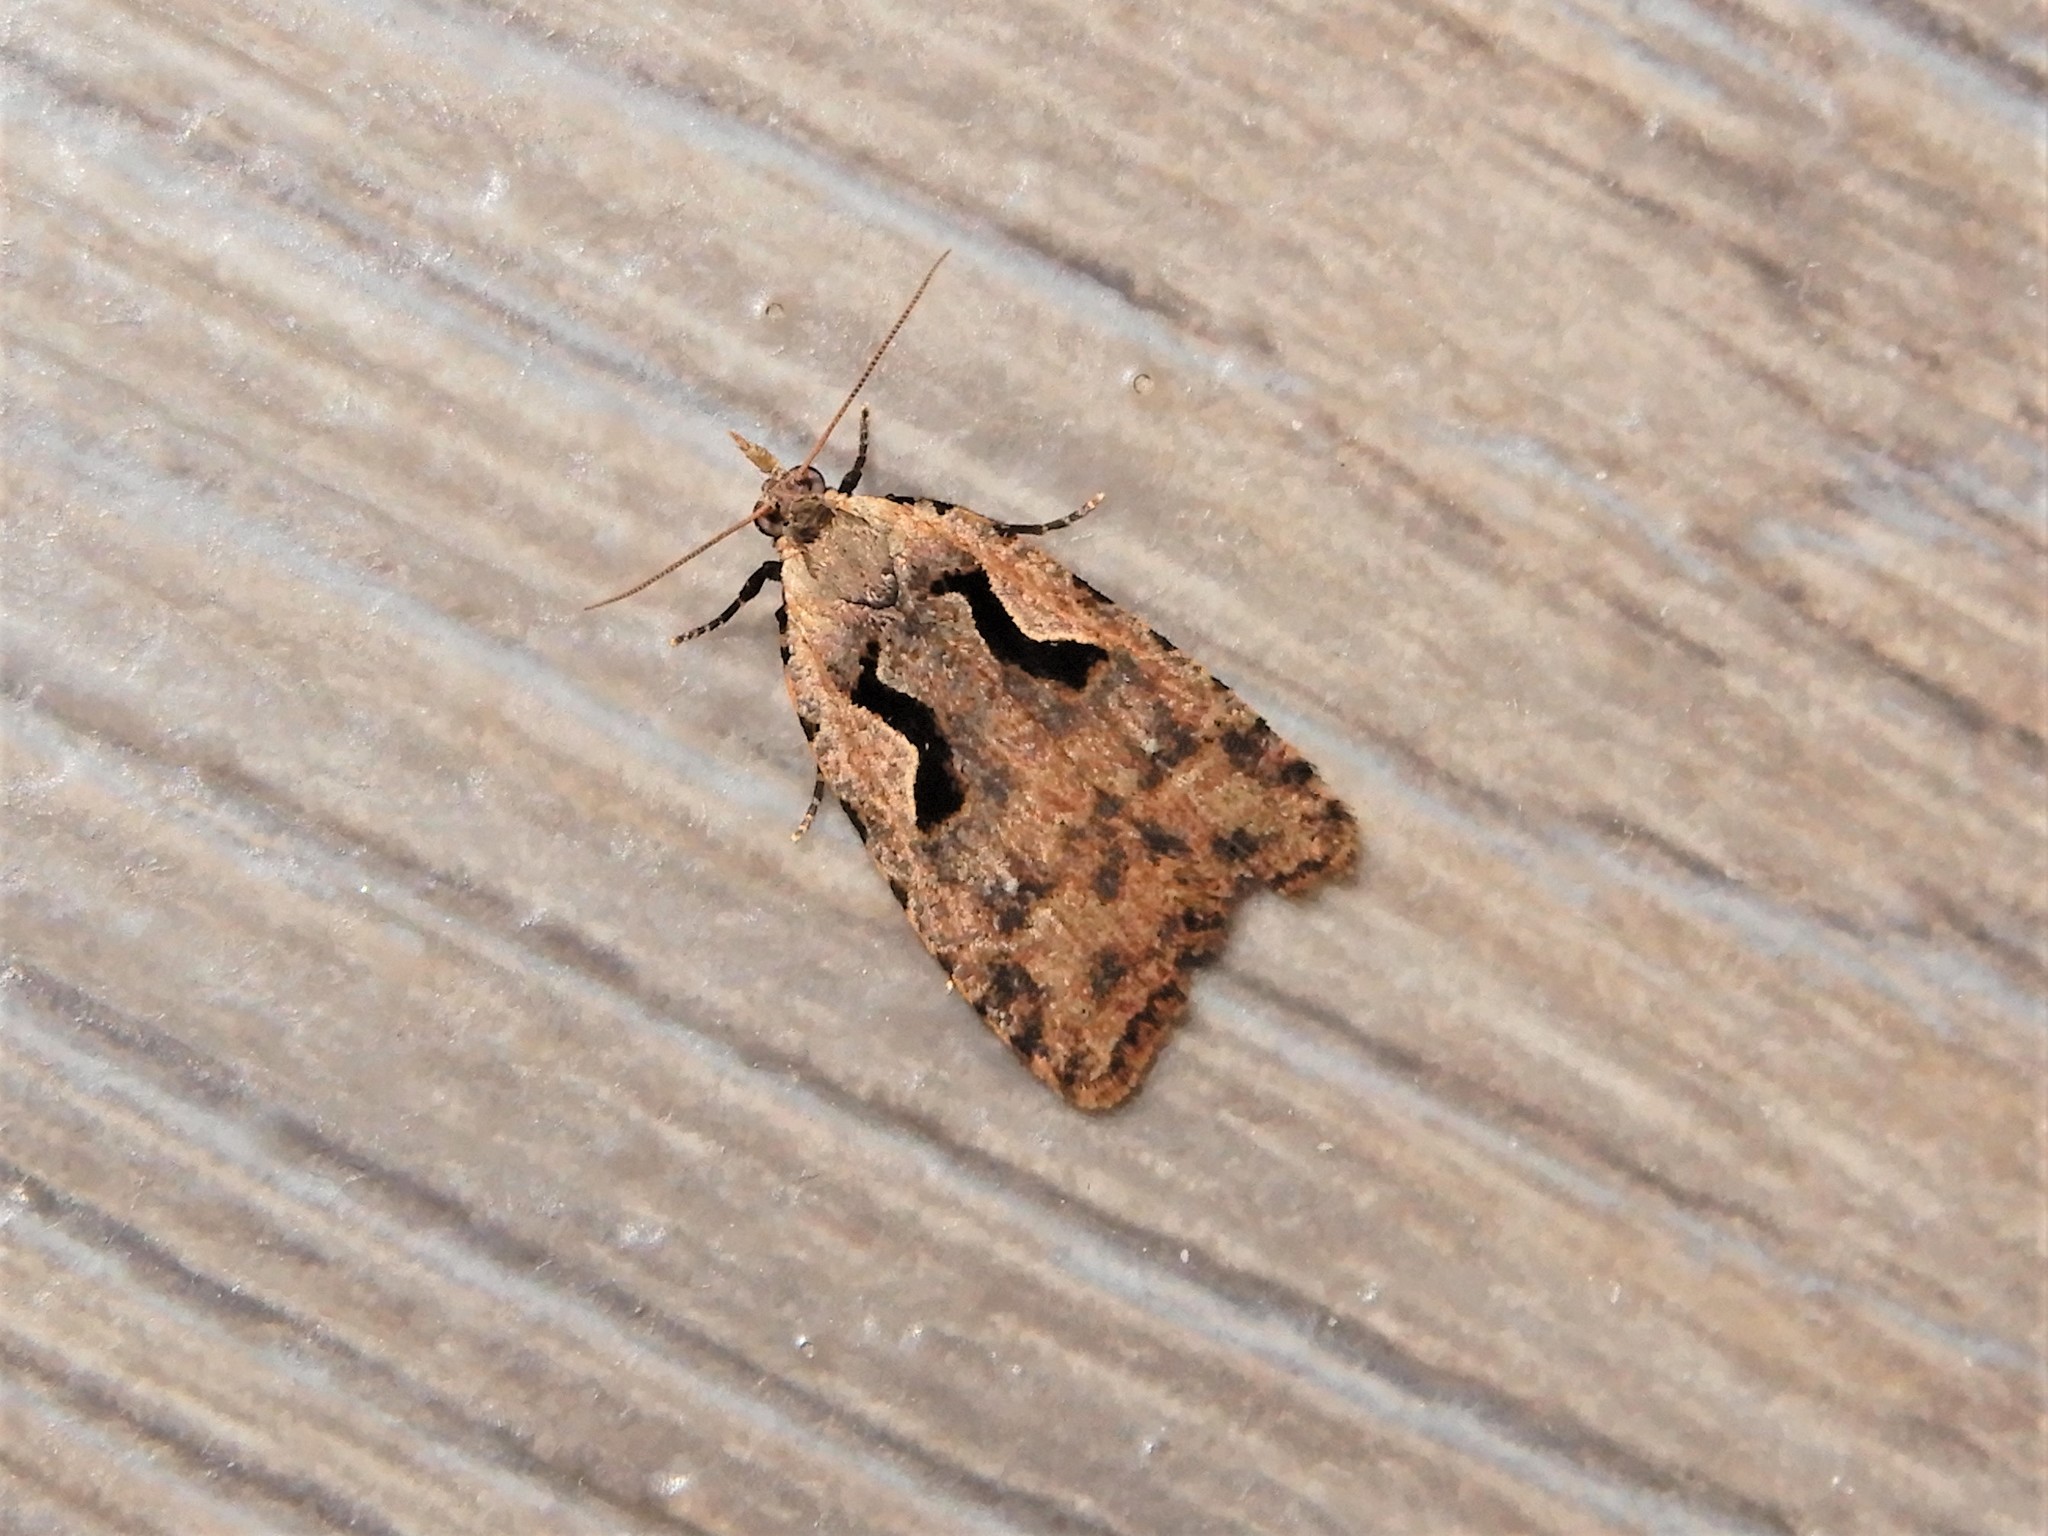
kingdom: Animalia
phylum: Arthropoda
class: Insecta
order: Lepidoptera
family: Tortricidae
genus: Cnephasia
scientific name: Cnephasia jactatana
